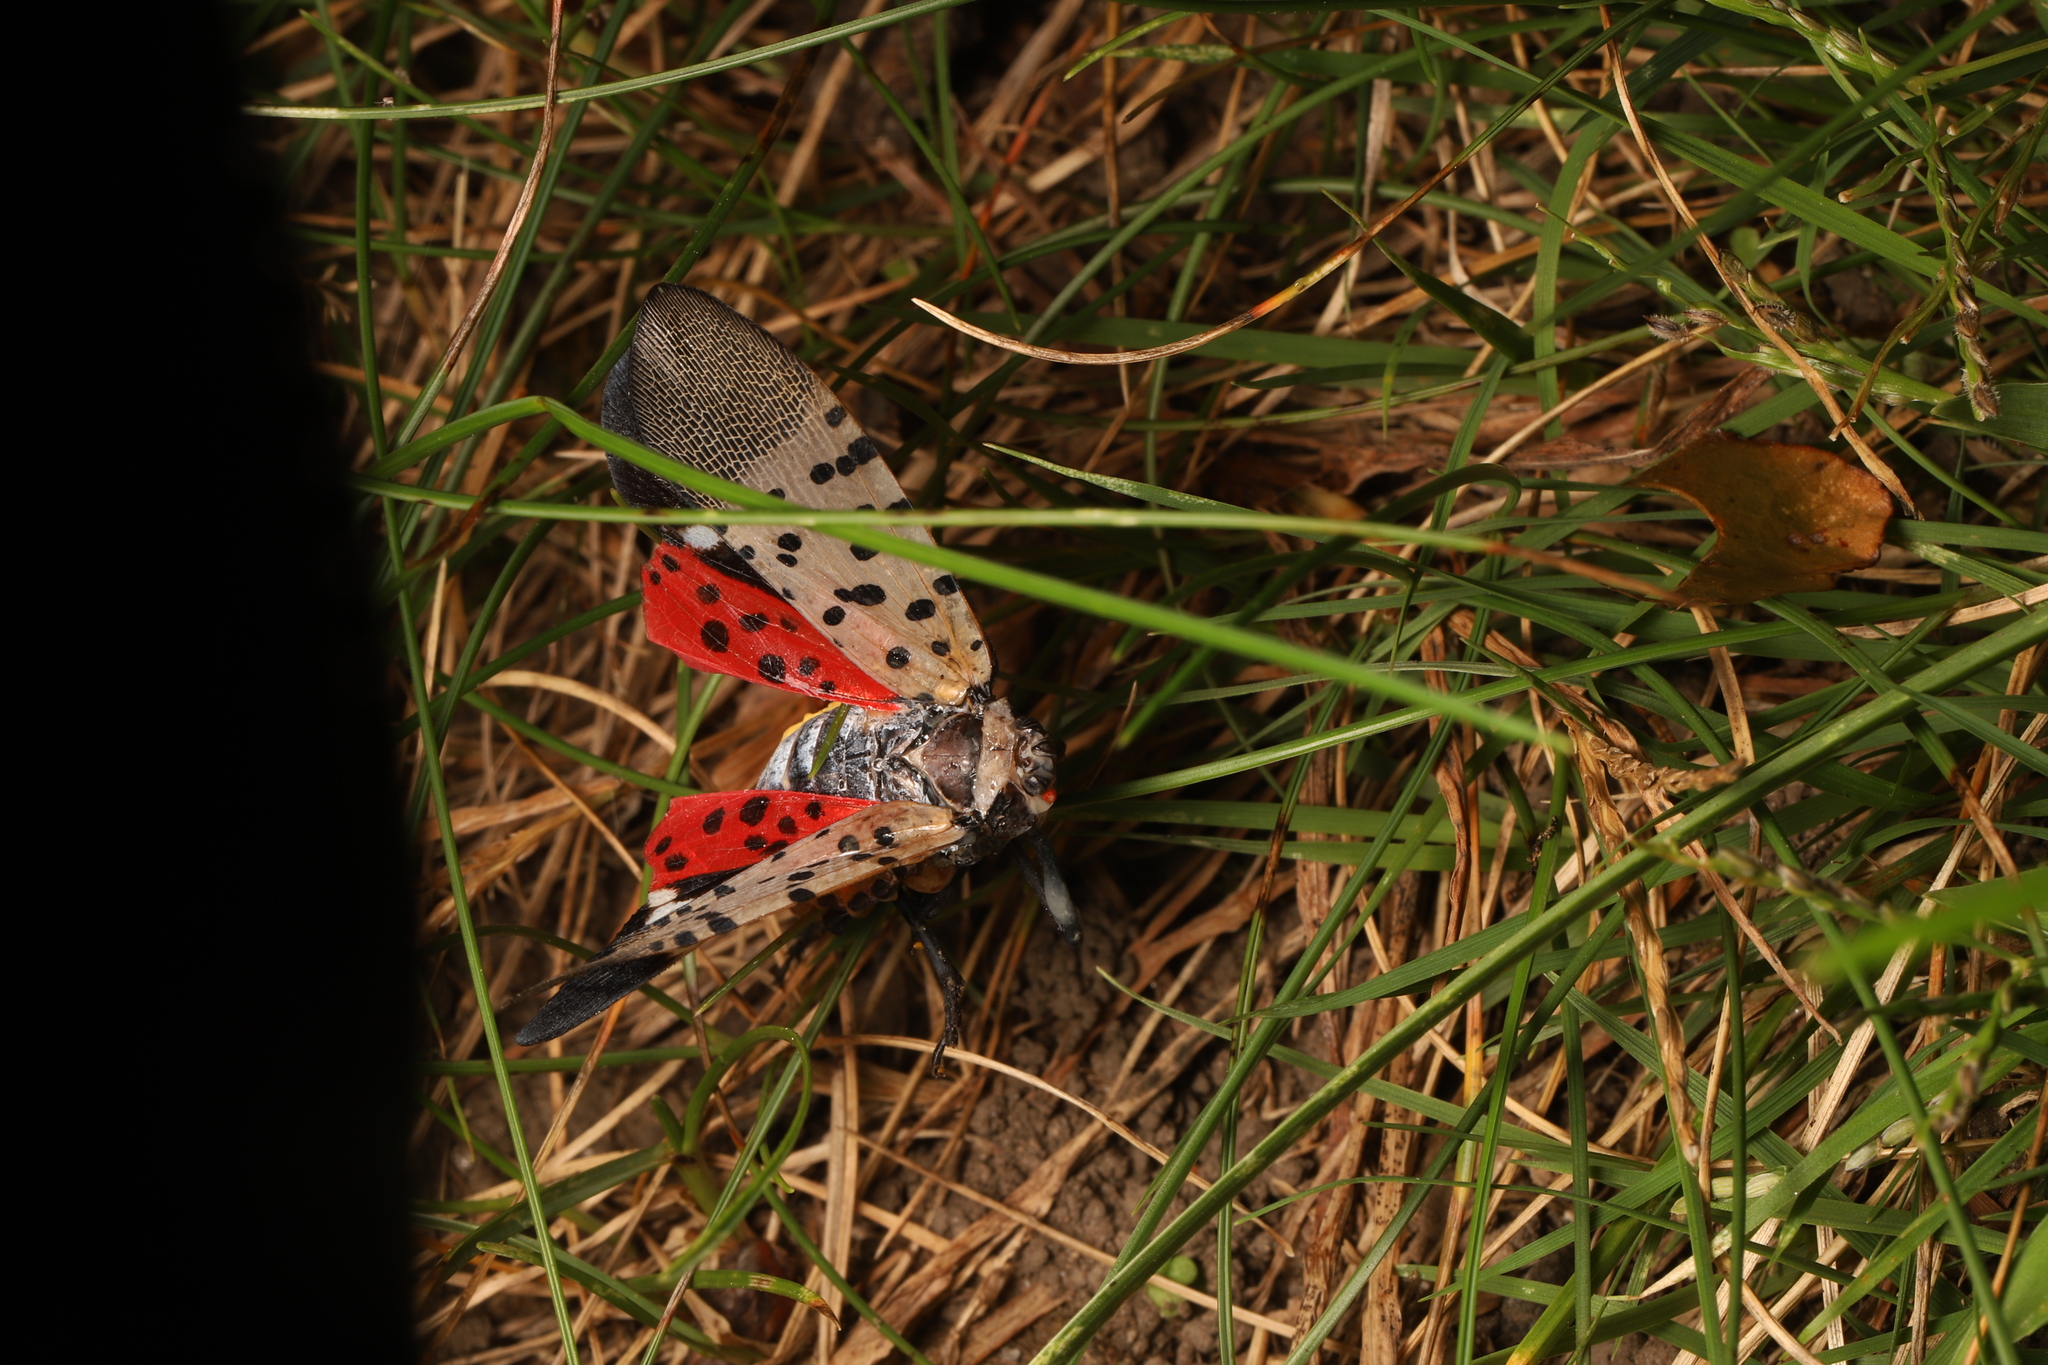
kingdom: Animalia
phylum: Arthropoda
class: Insecta
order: Hemiptera
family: Fulgoridae
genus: Lycorma
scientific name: Lycorma delicatula
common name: Spotted lanternfly
